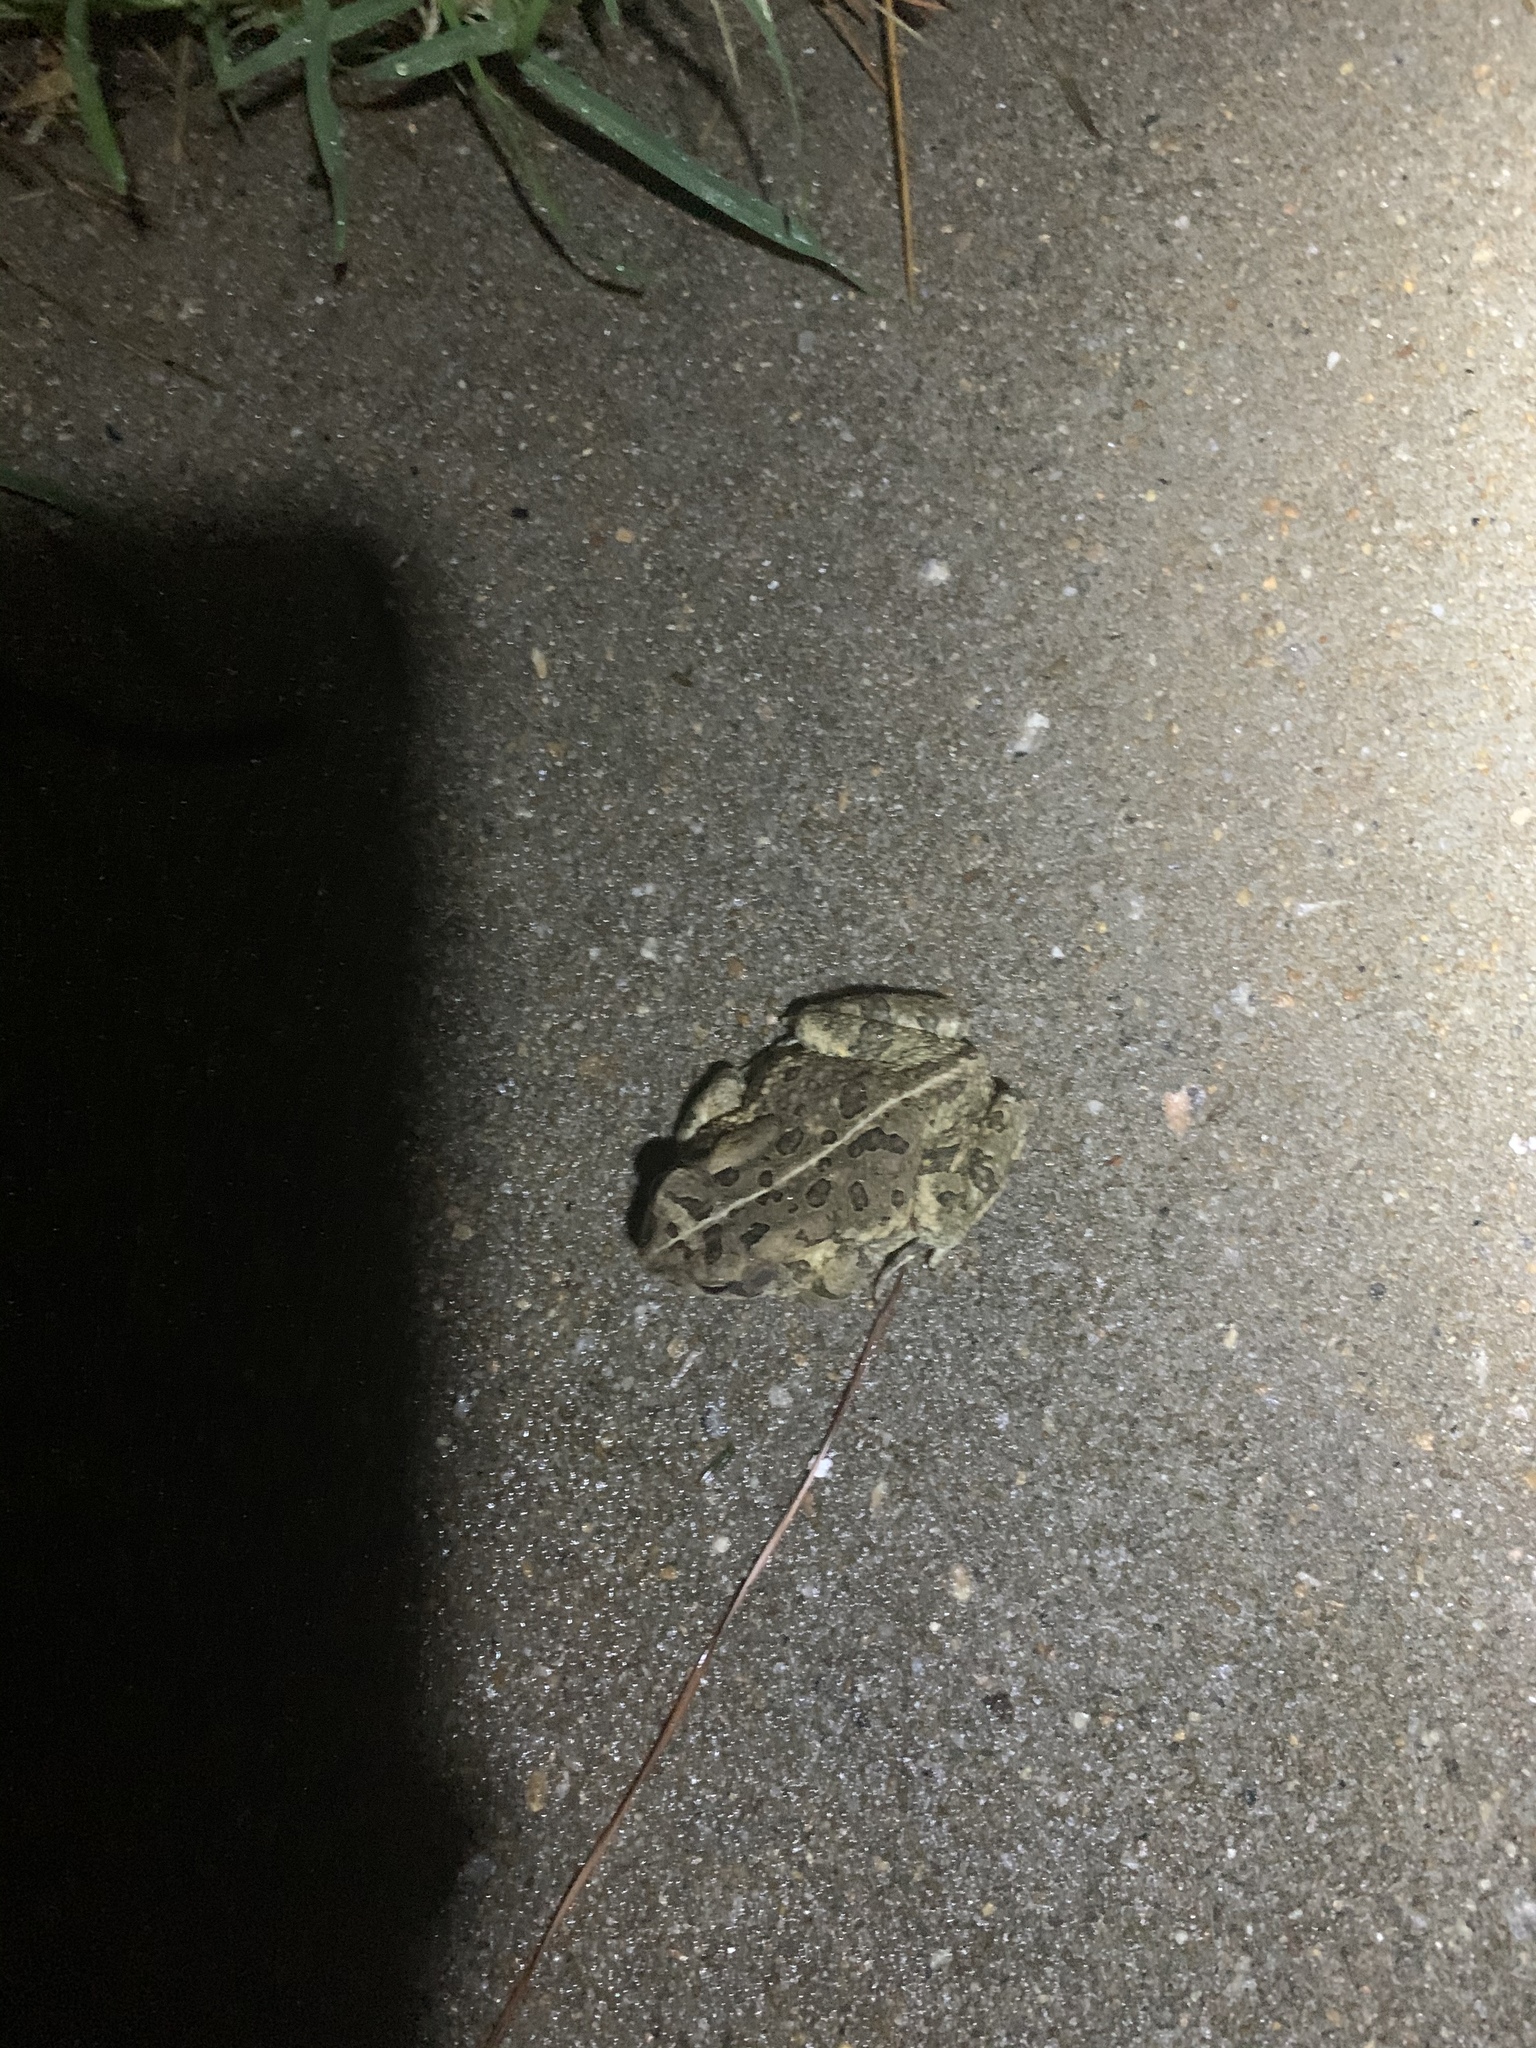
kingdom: Animalia
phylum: Chordata
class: Amphibia
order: Anura
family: Bufonidae
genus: Anaxyrus
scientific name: Anaxyrus fowleri
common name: Fowler's toad
